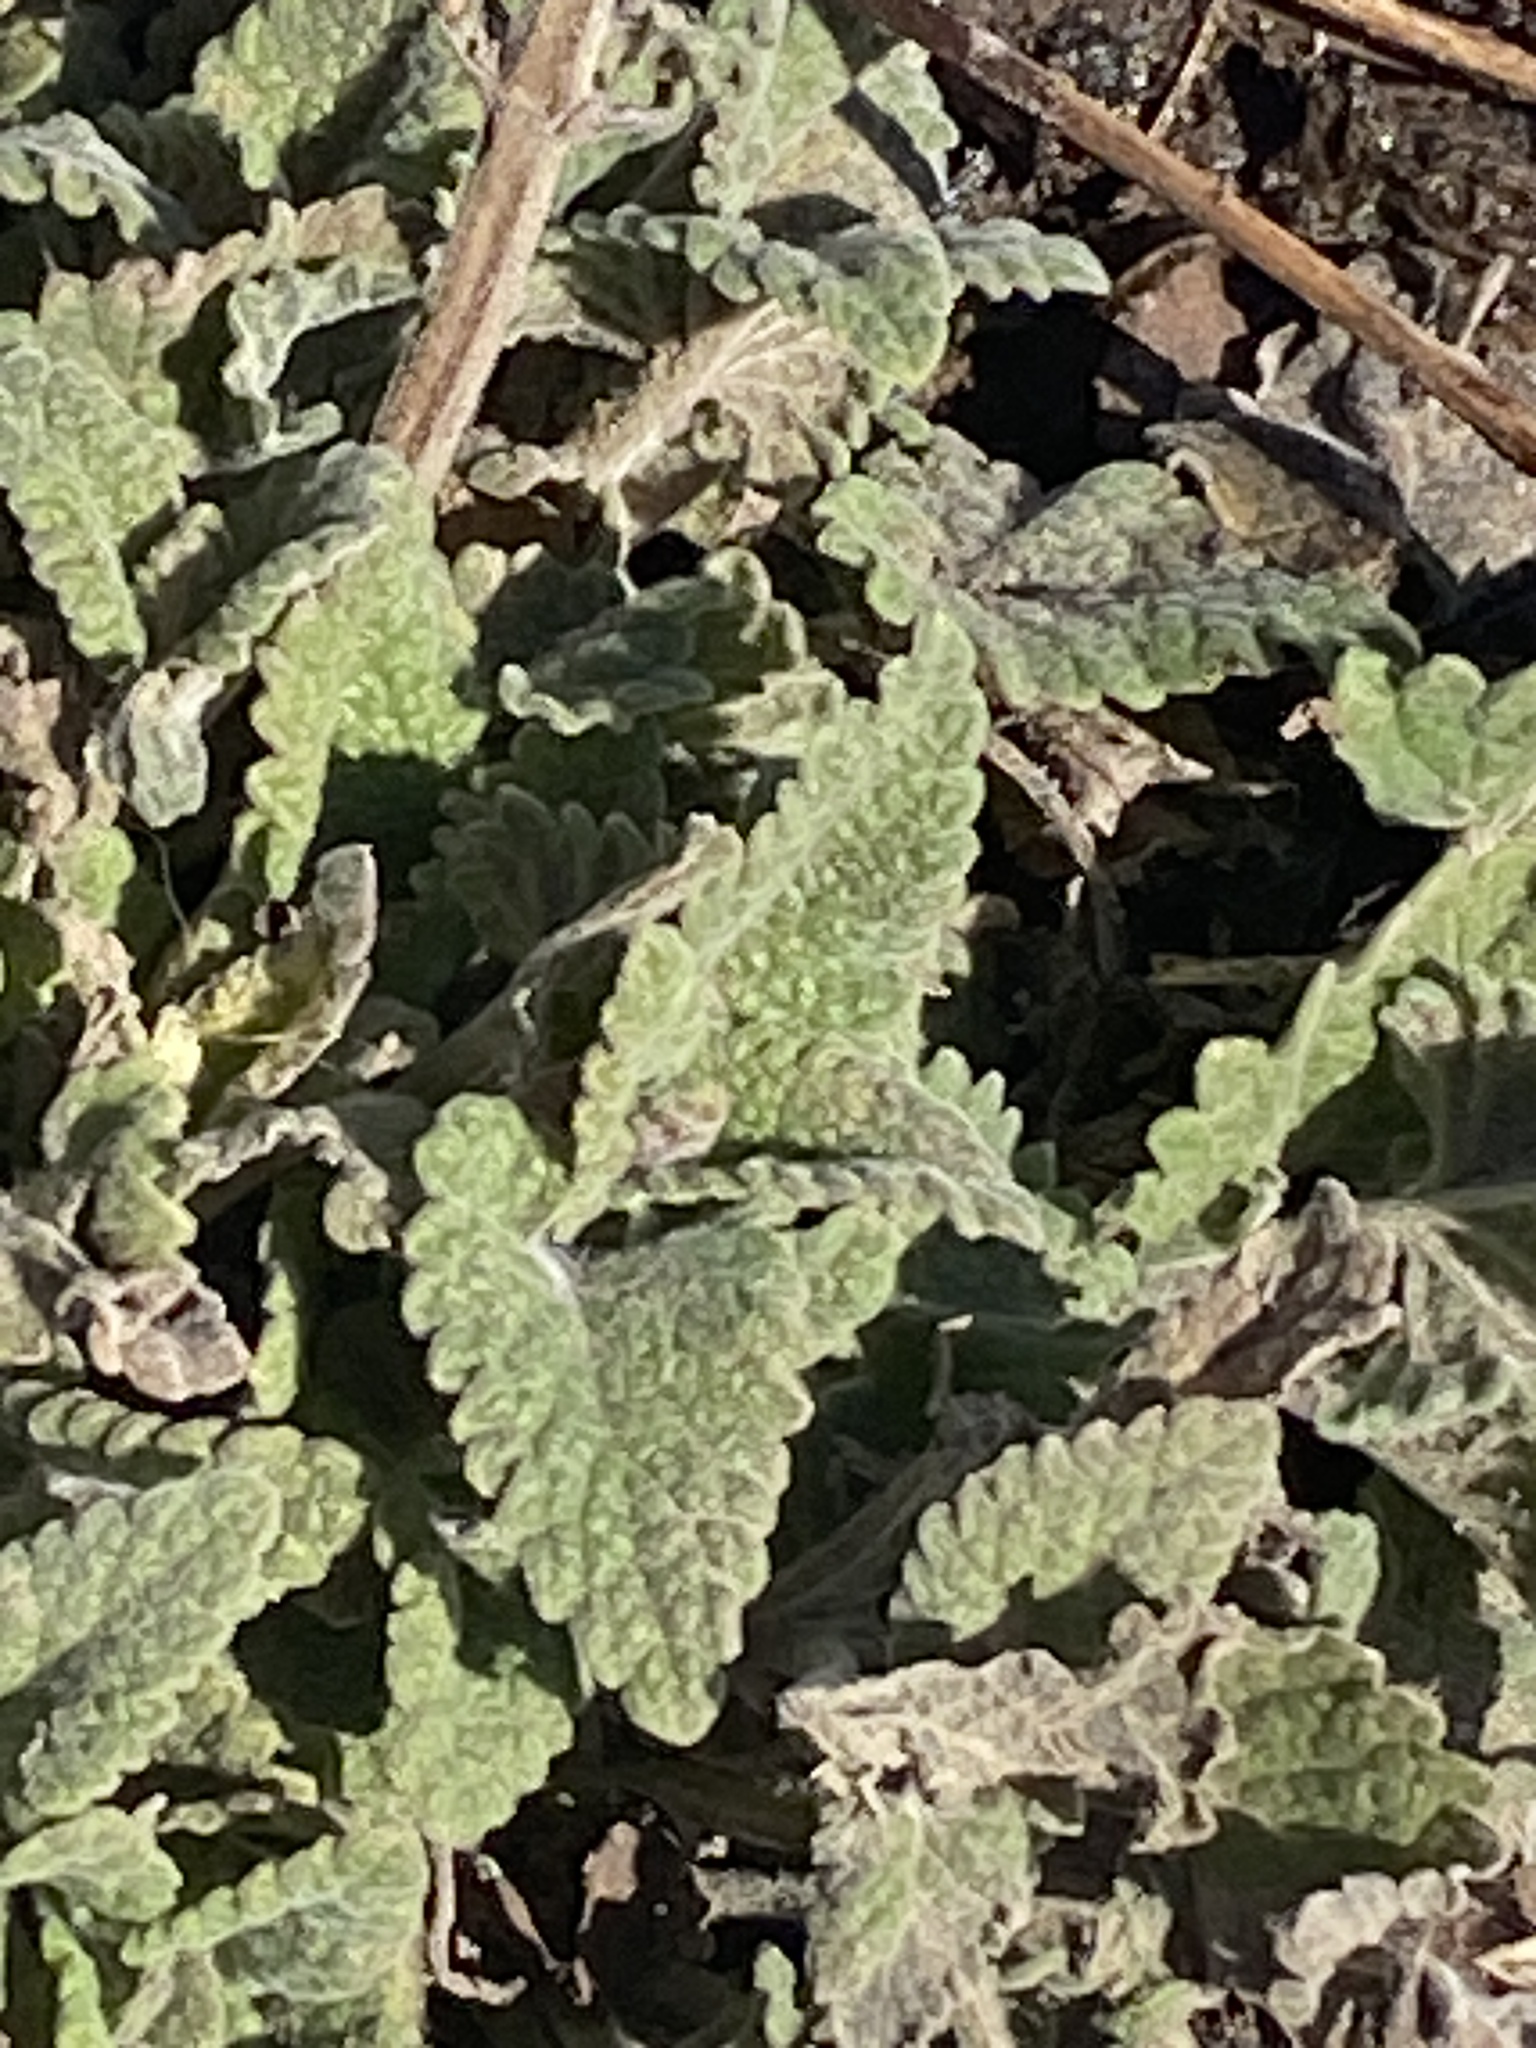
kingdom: Plantae
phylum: Tracheophyta
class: Magnoliopsida
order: Lamiales
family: Lamiaceae
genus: Nepeta
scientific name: Nepeta cataria
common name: Catnip
